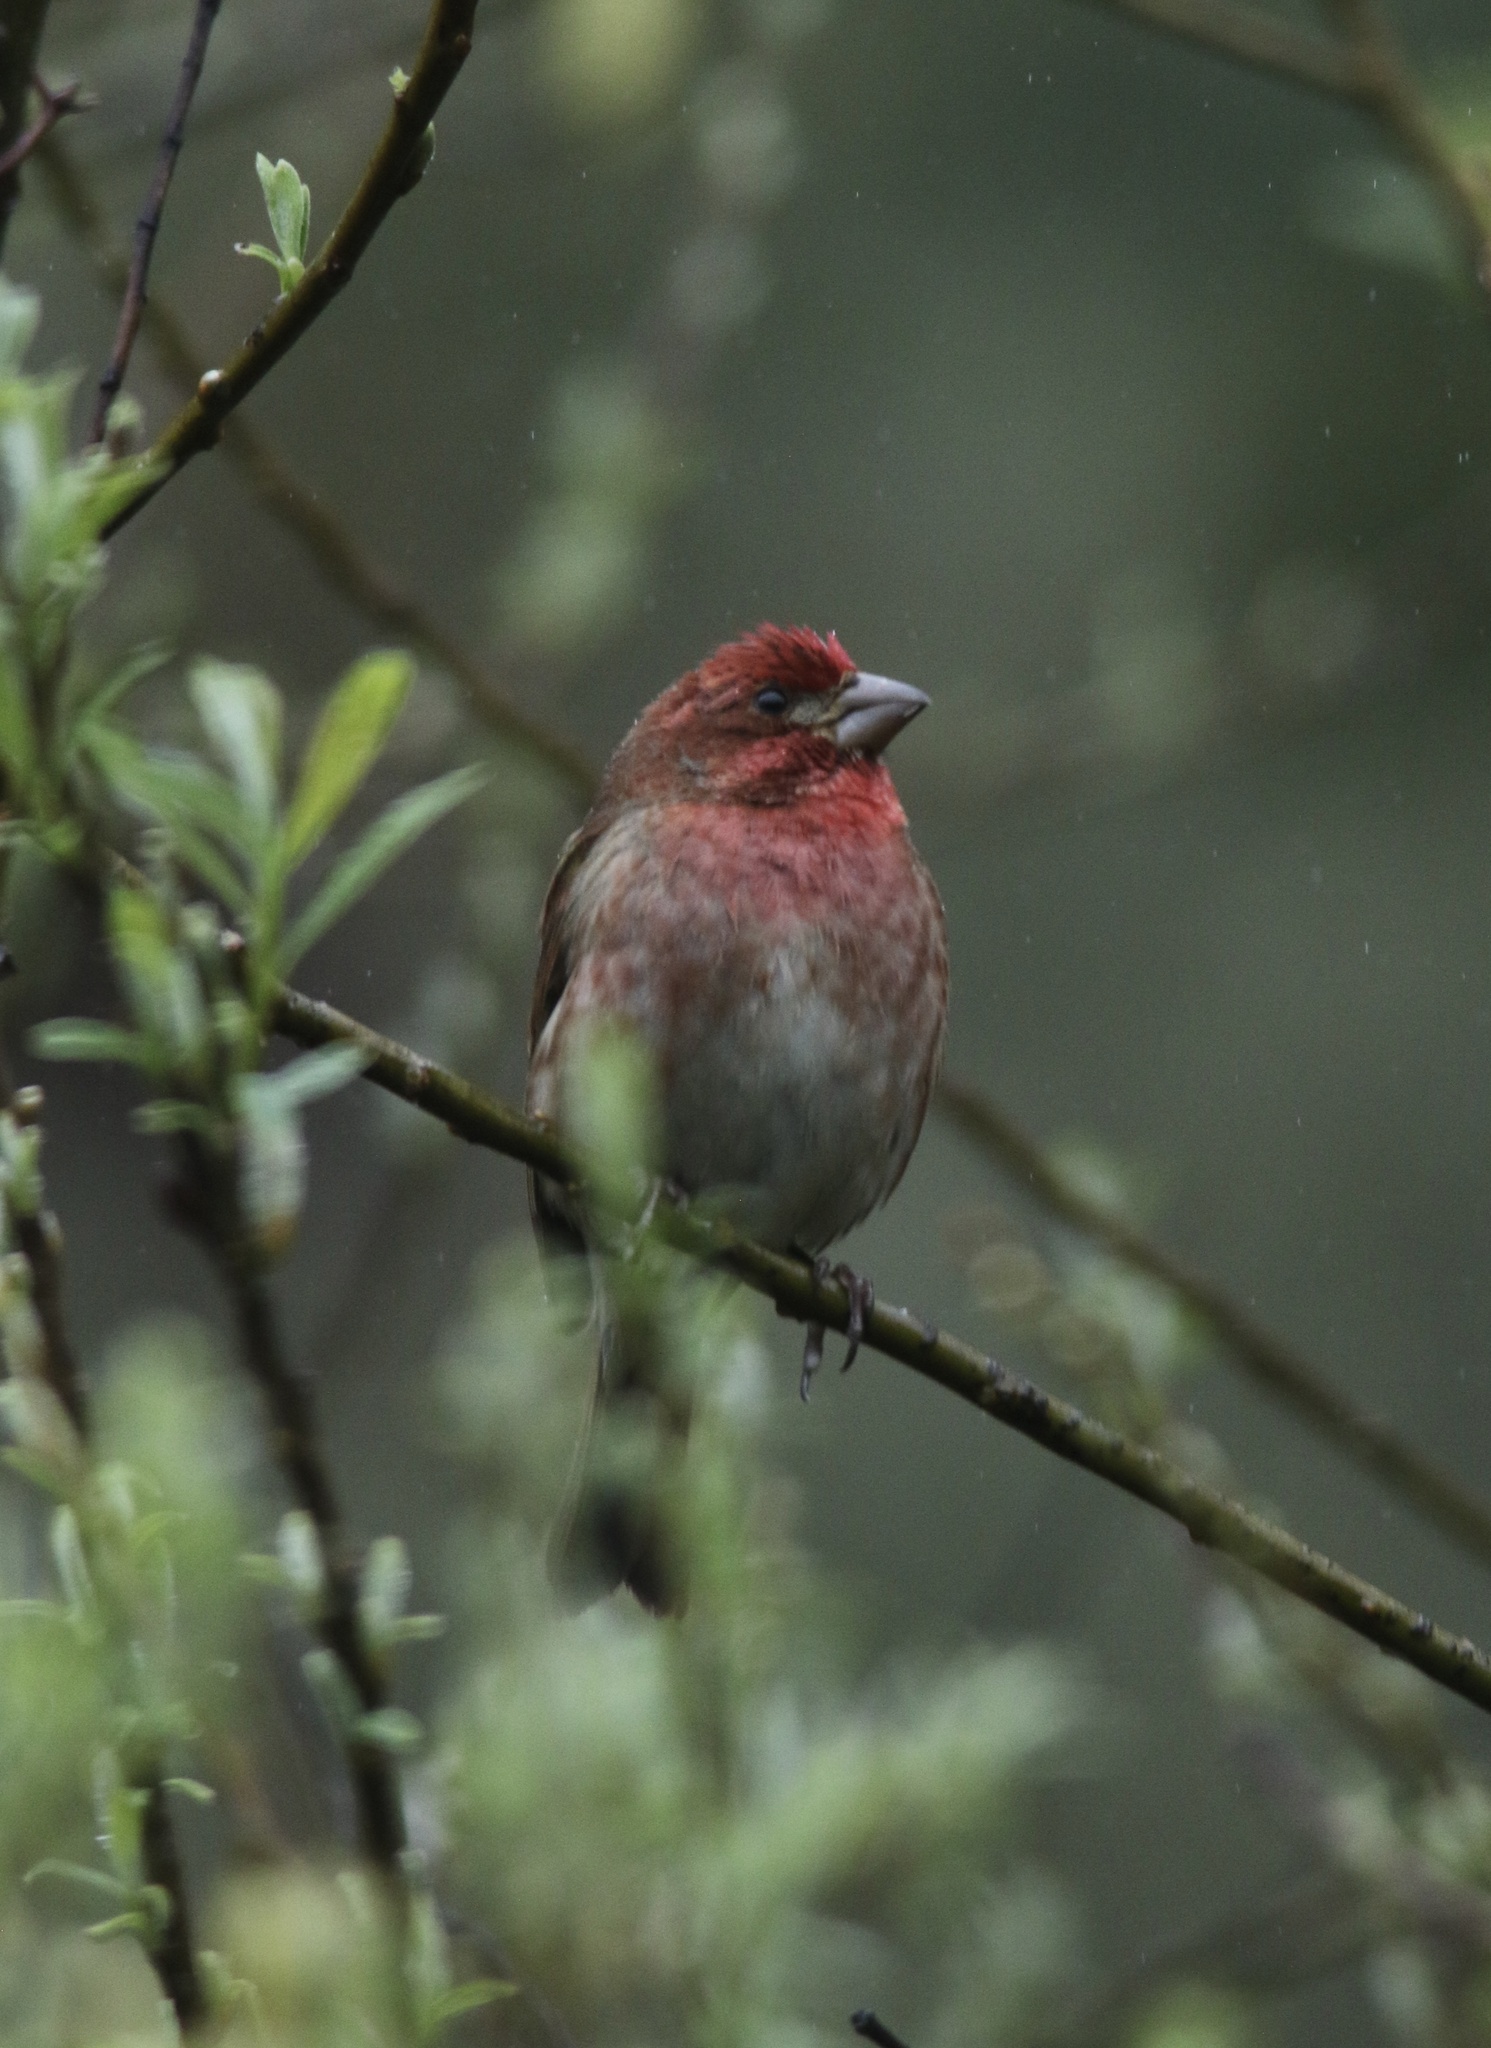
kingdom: Animalia
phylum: Chordata
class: Aves
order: Passeriformes
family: Fringillidae
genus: Haemorhous
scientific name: Haemorhous purpureus
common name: Purple finch
